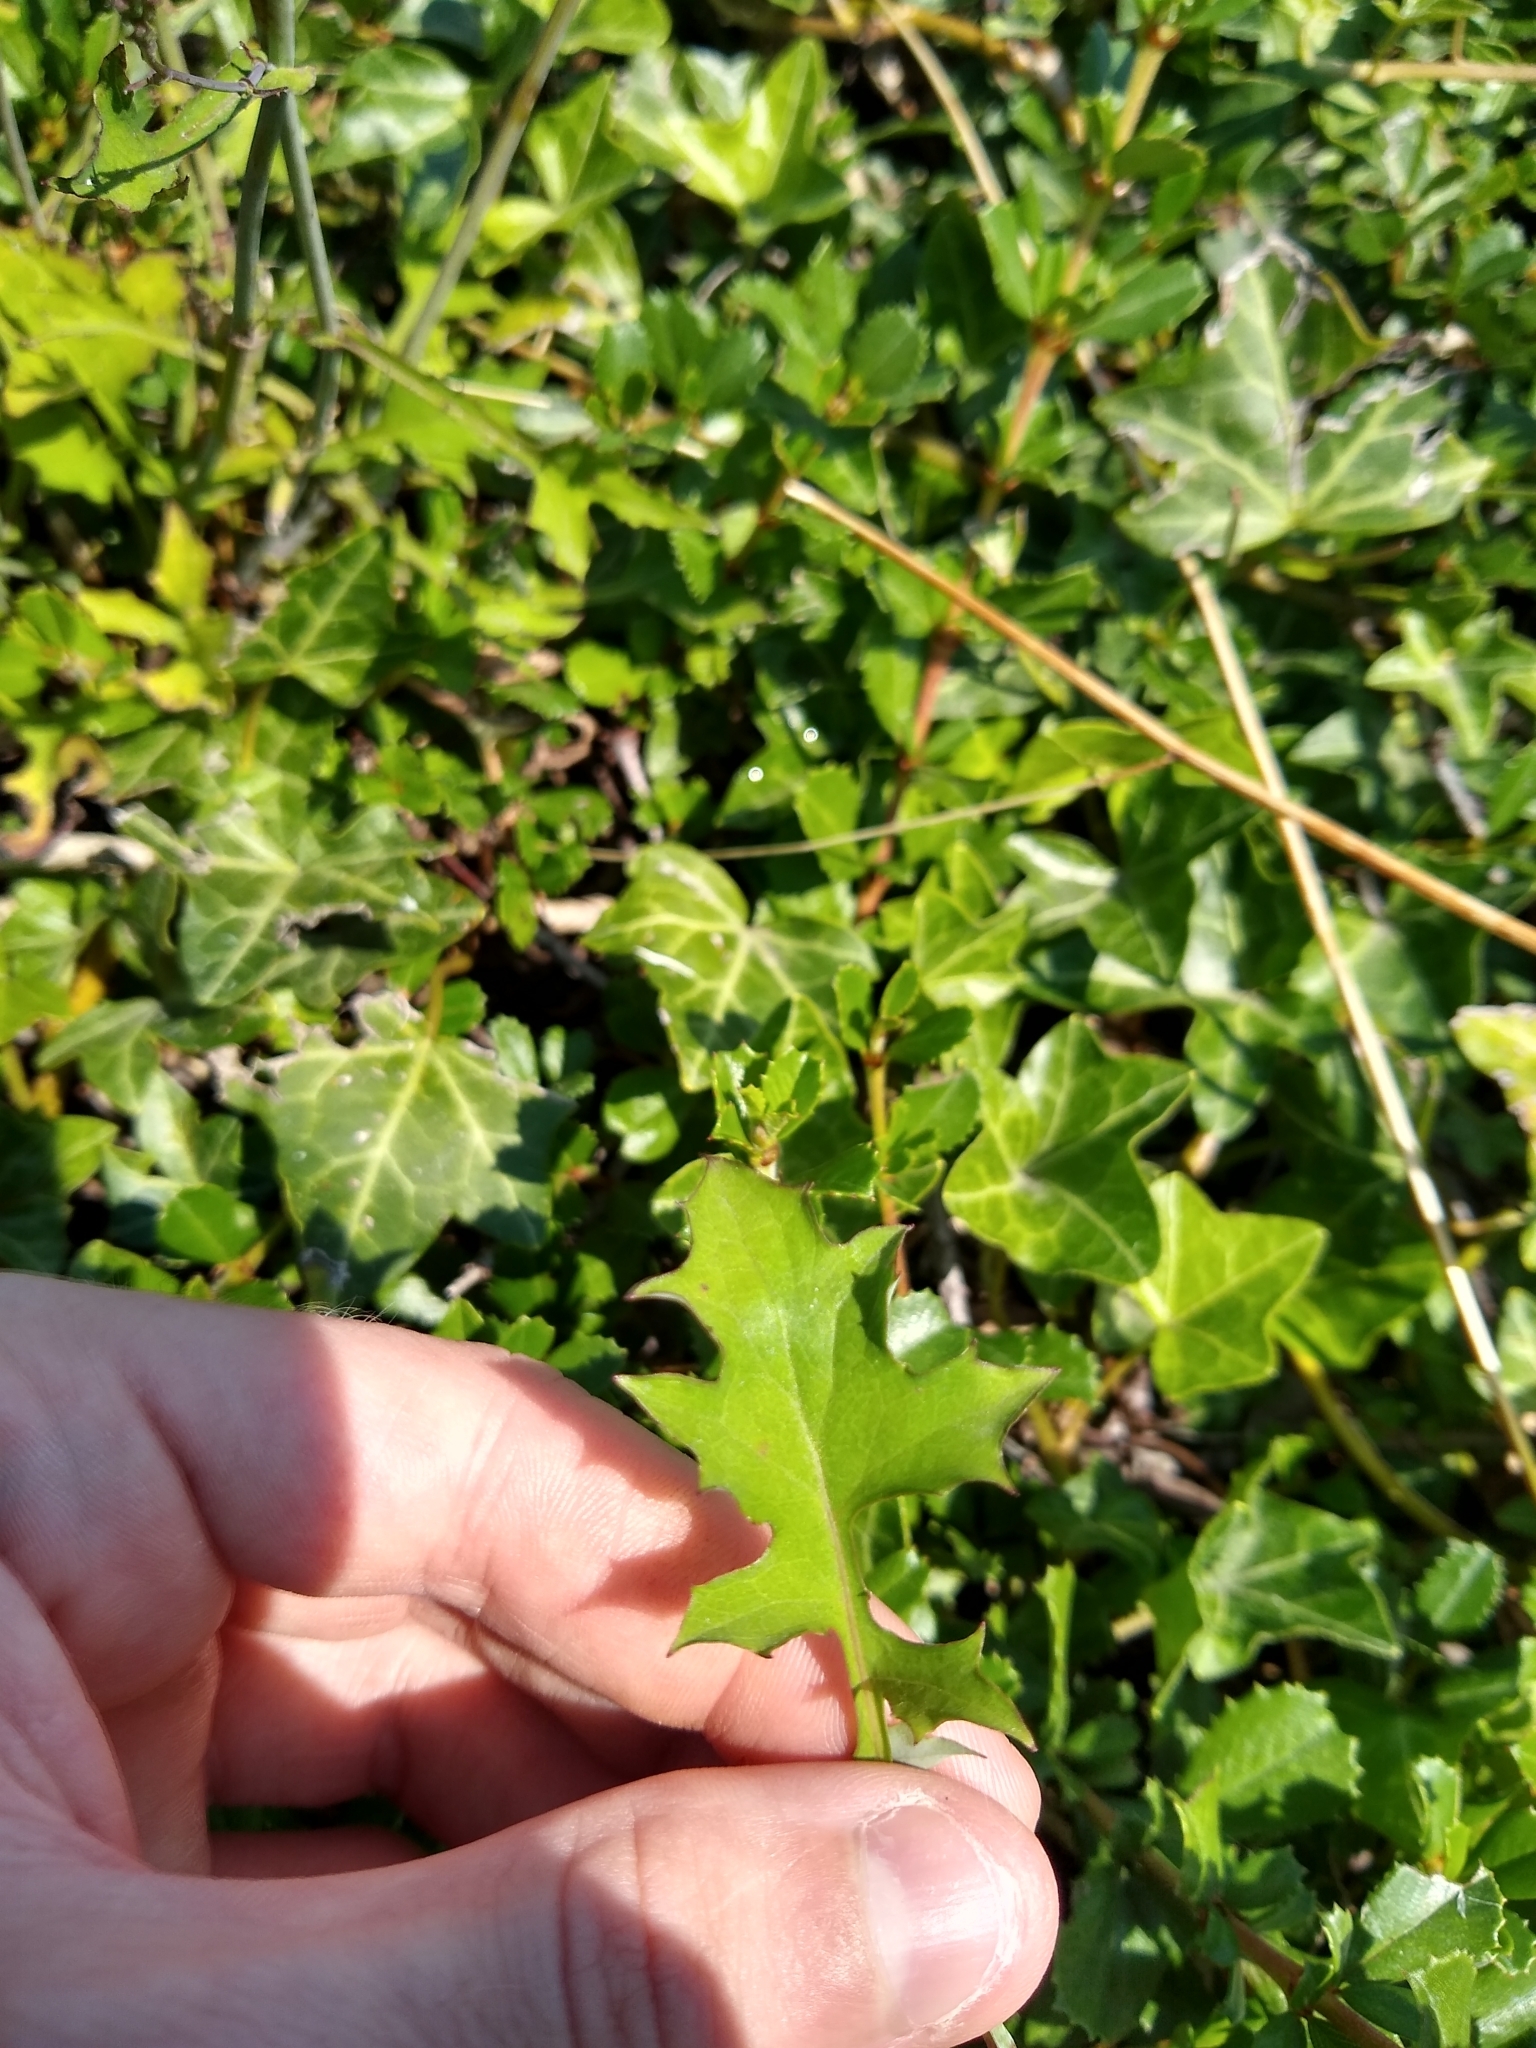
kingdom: Plantae
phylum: Tracheophyta
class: Magnoliopsida
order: Asterales
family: Asteraceae
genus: Mycelis
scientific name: Mycelis muralis
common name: Wall lettuce
